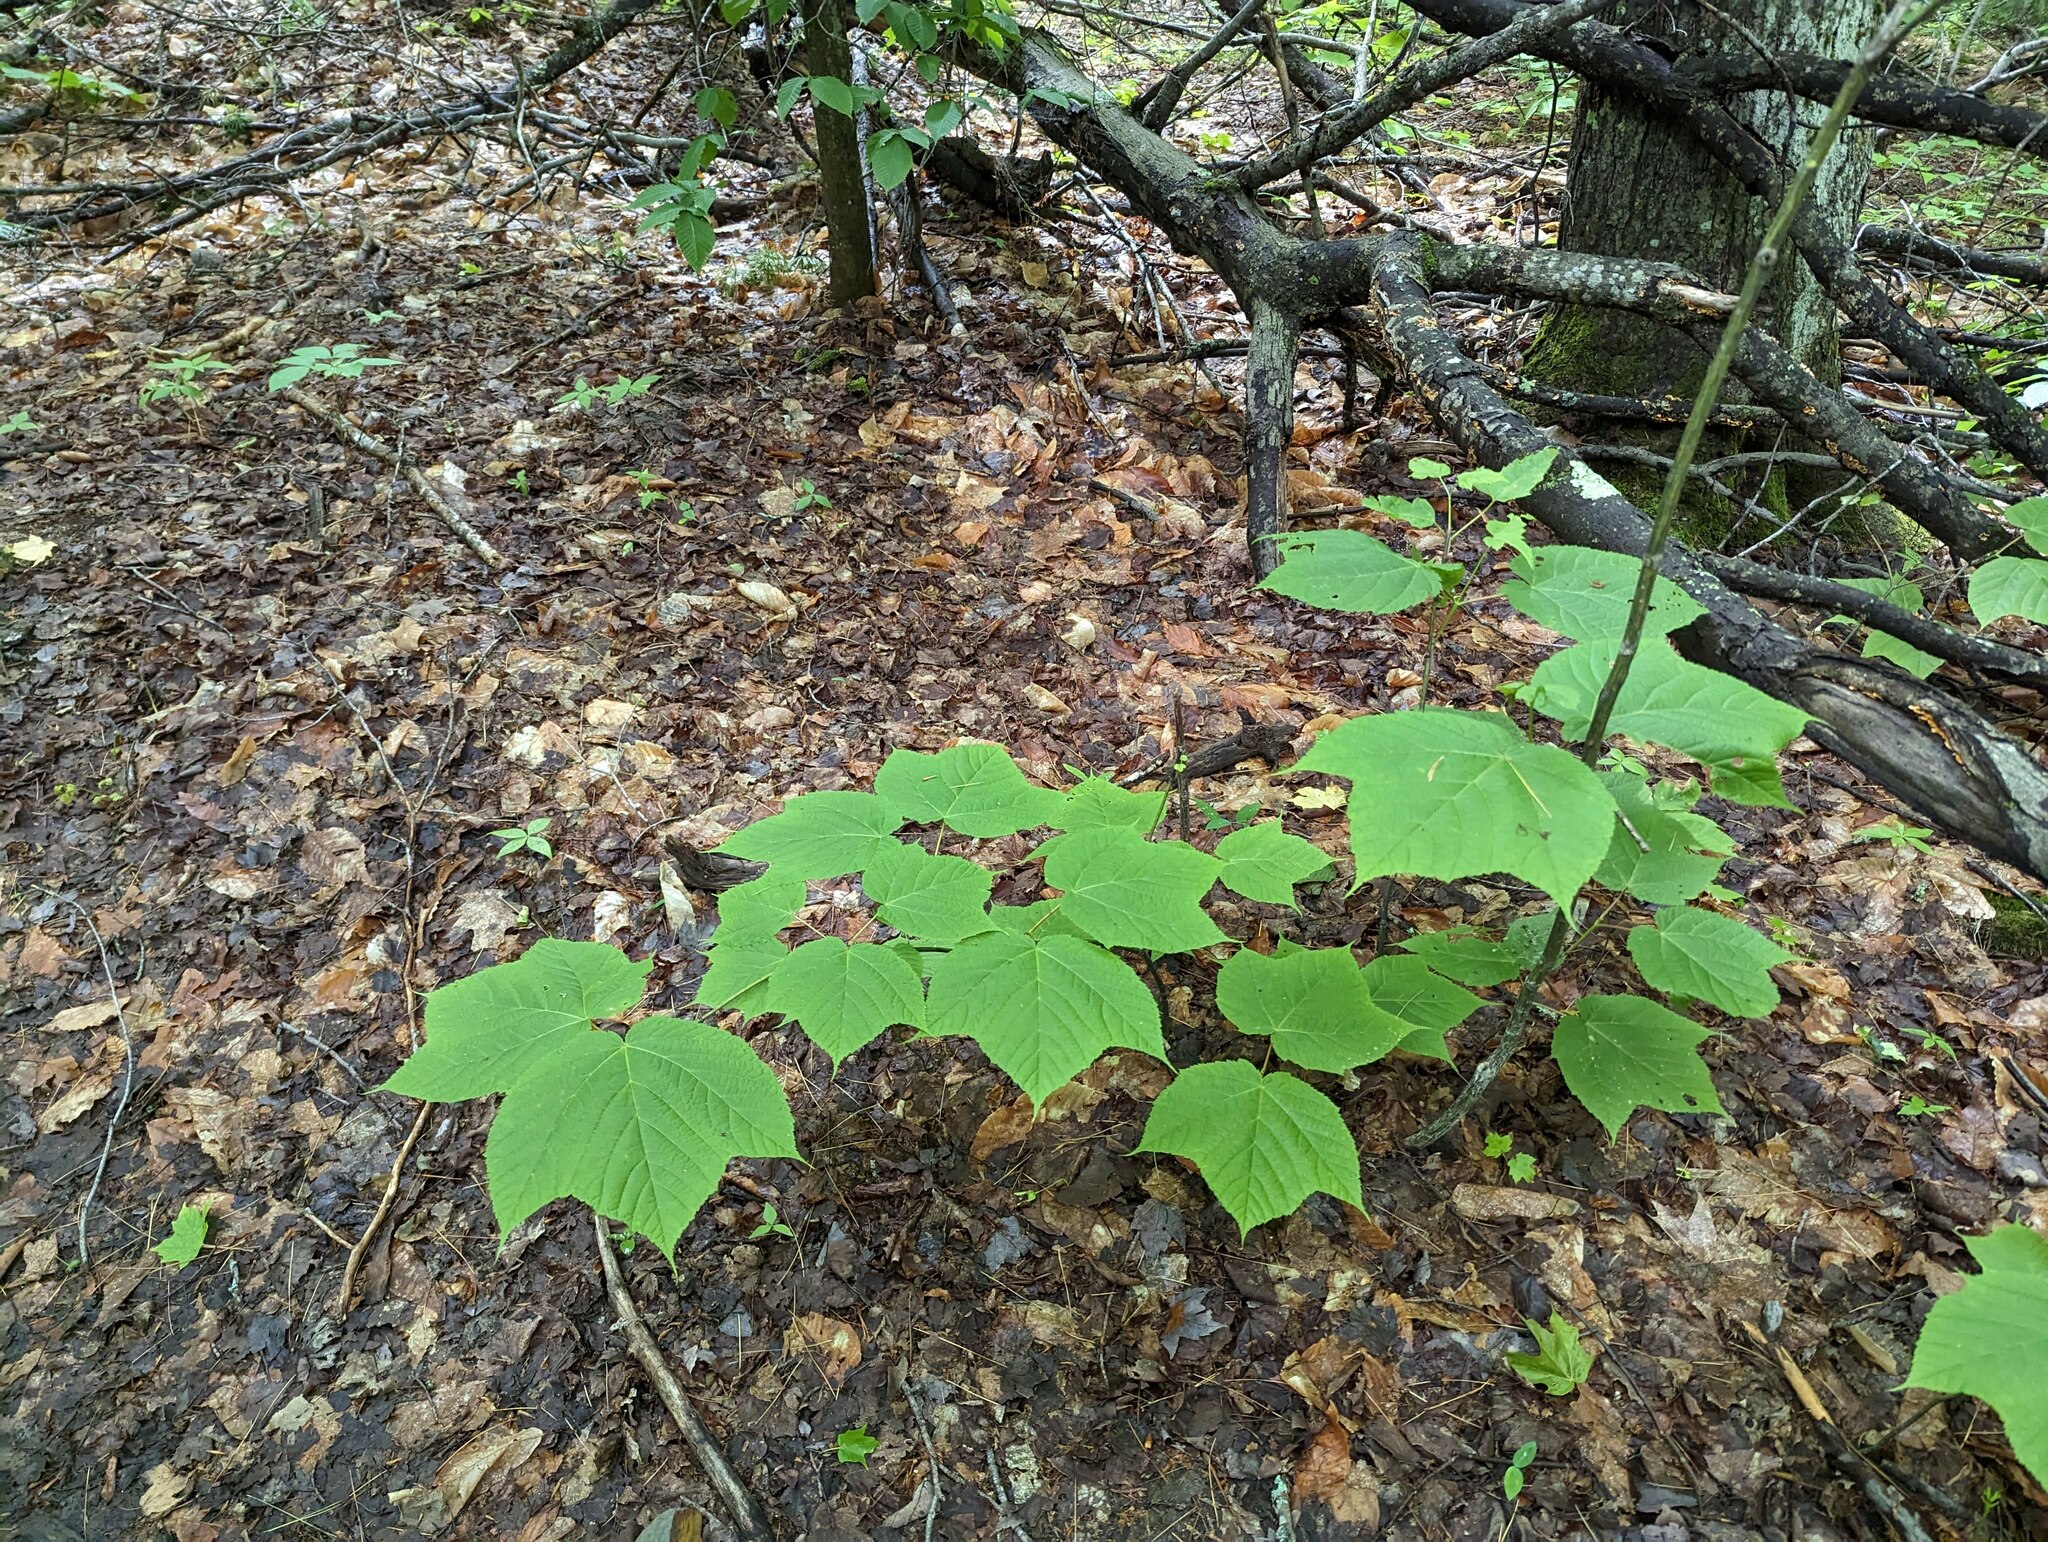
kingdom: Plantae
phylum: Tracheophyta
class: Magnoliopsida
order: Sapindales
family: Sapindaceae
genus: Acer
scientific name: Acer pensylvanicum
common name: Moosewood
